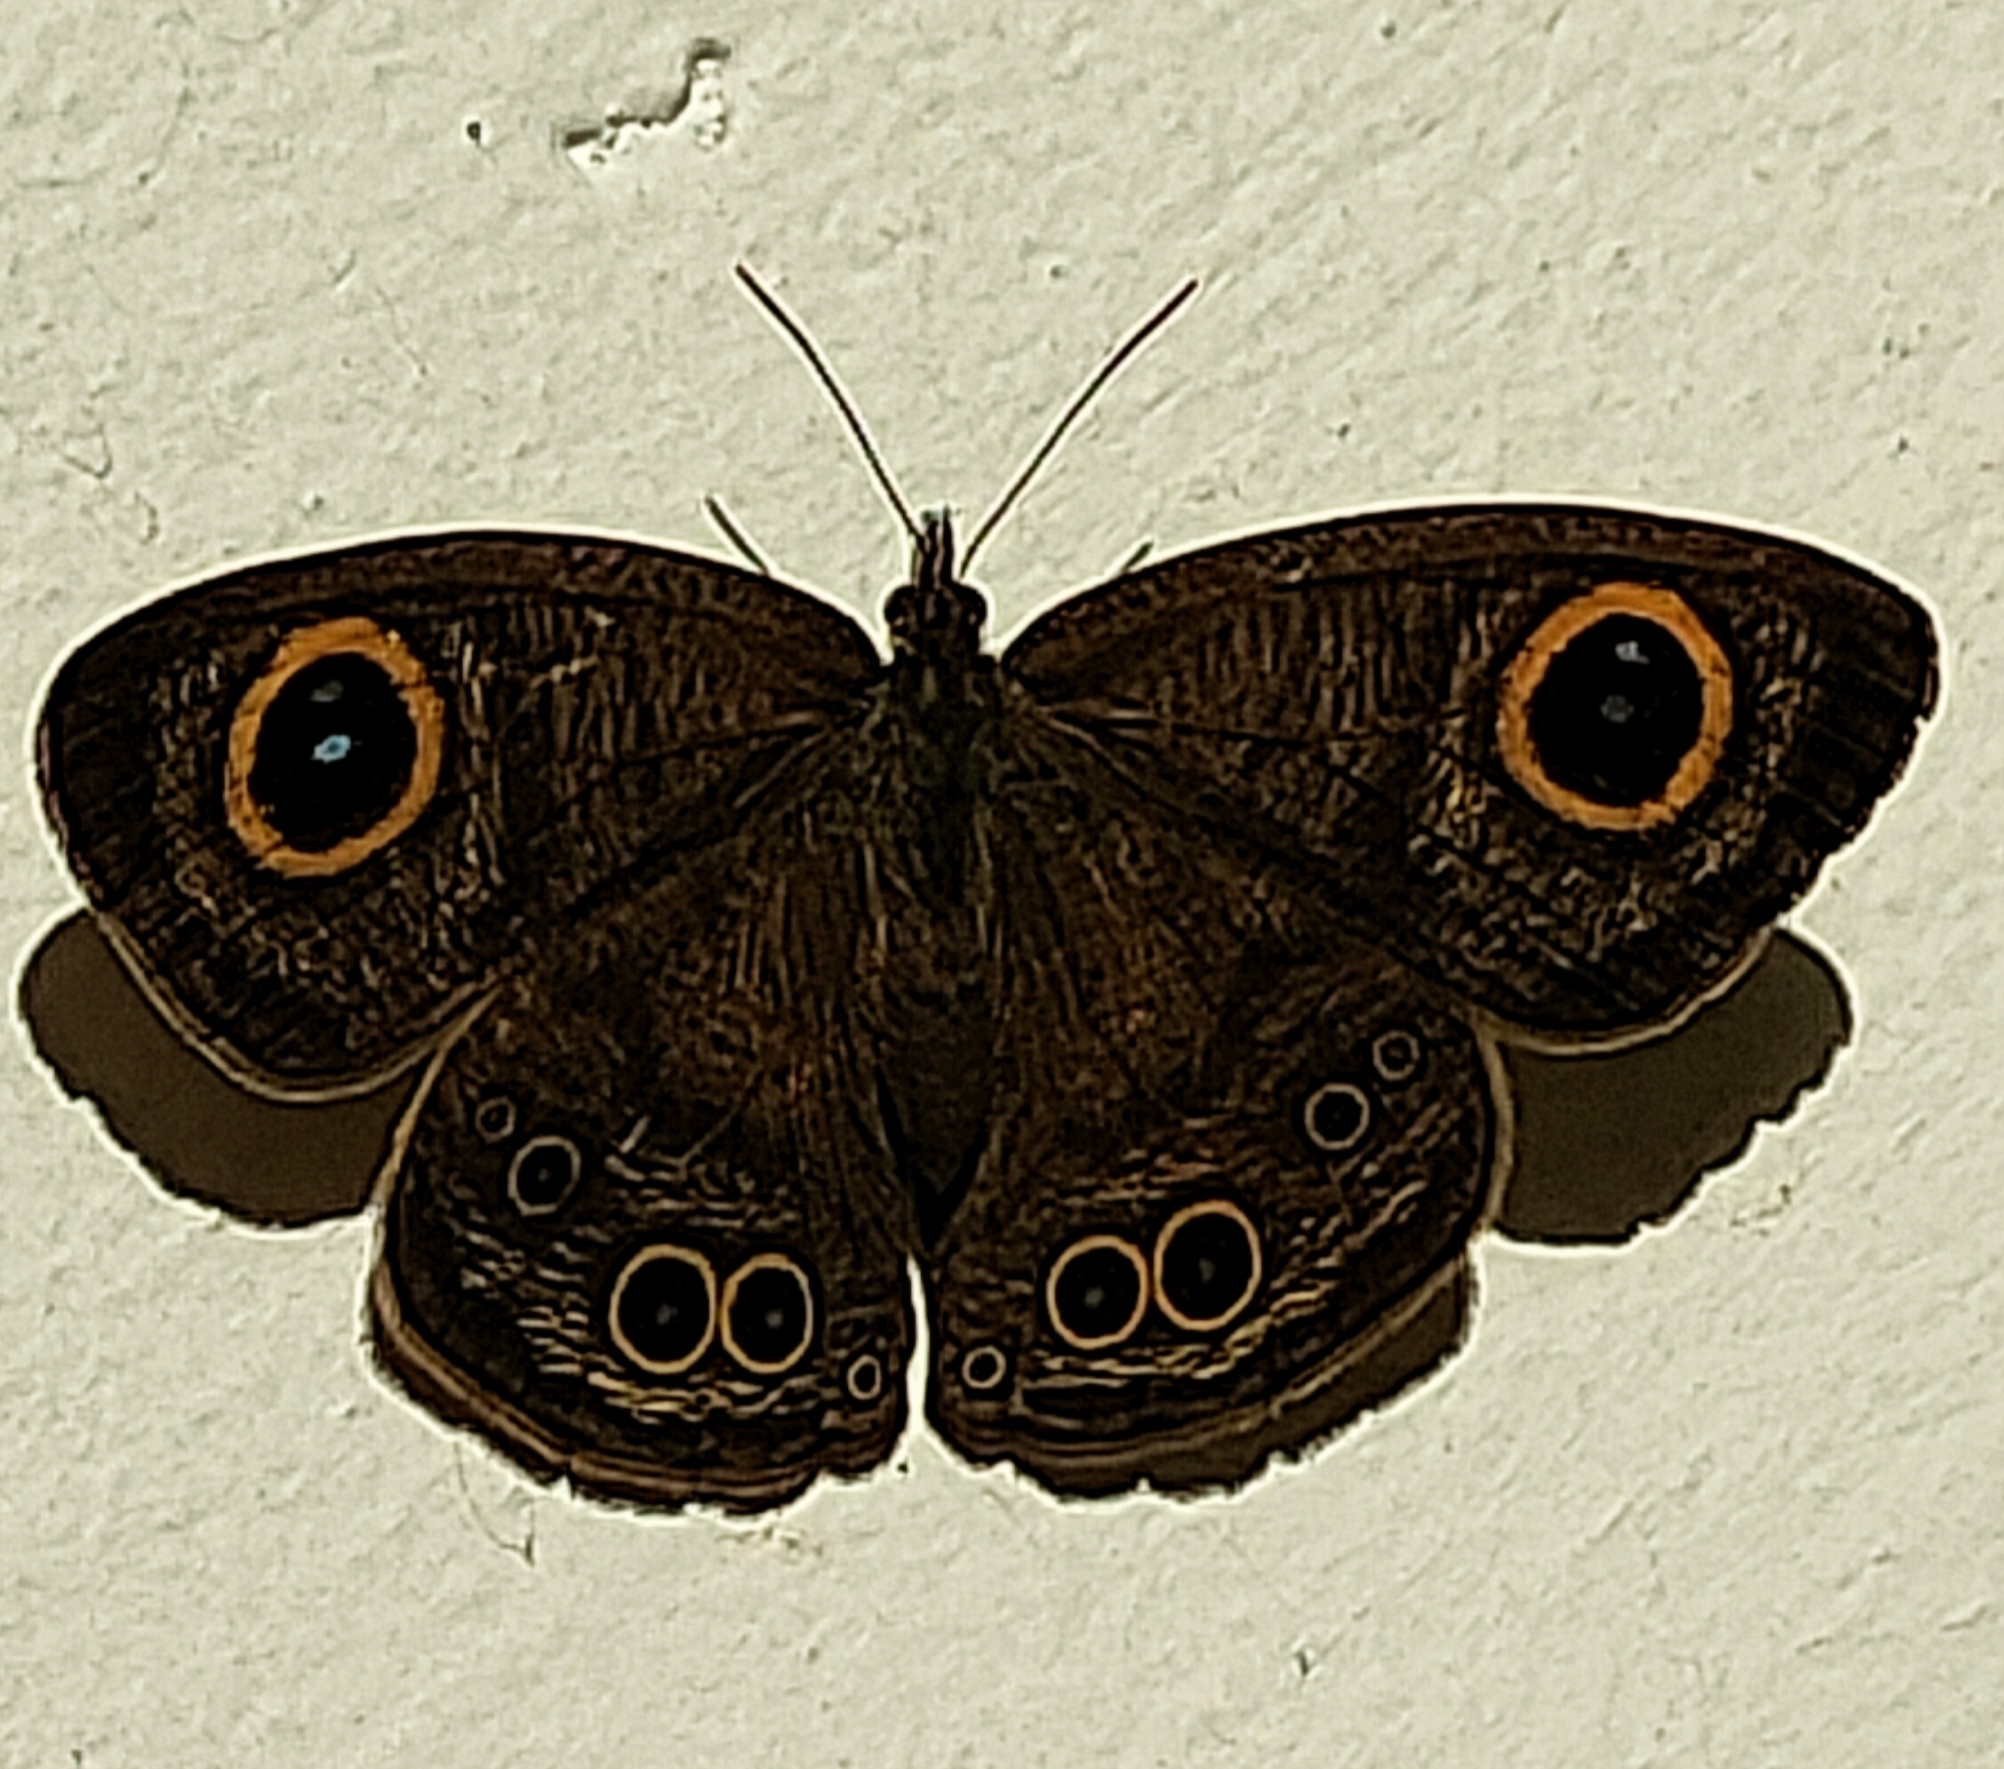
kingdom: Animalia
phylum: Arthropoda
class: Insecta
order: Lepidoptera
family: Nymphalidae
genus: Ypthima
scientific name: Ypthima baldus
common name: Common five-ring
